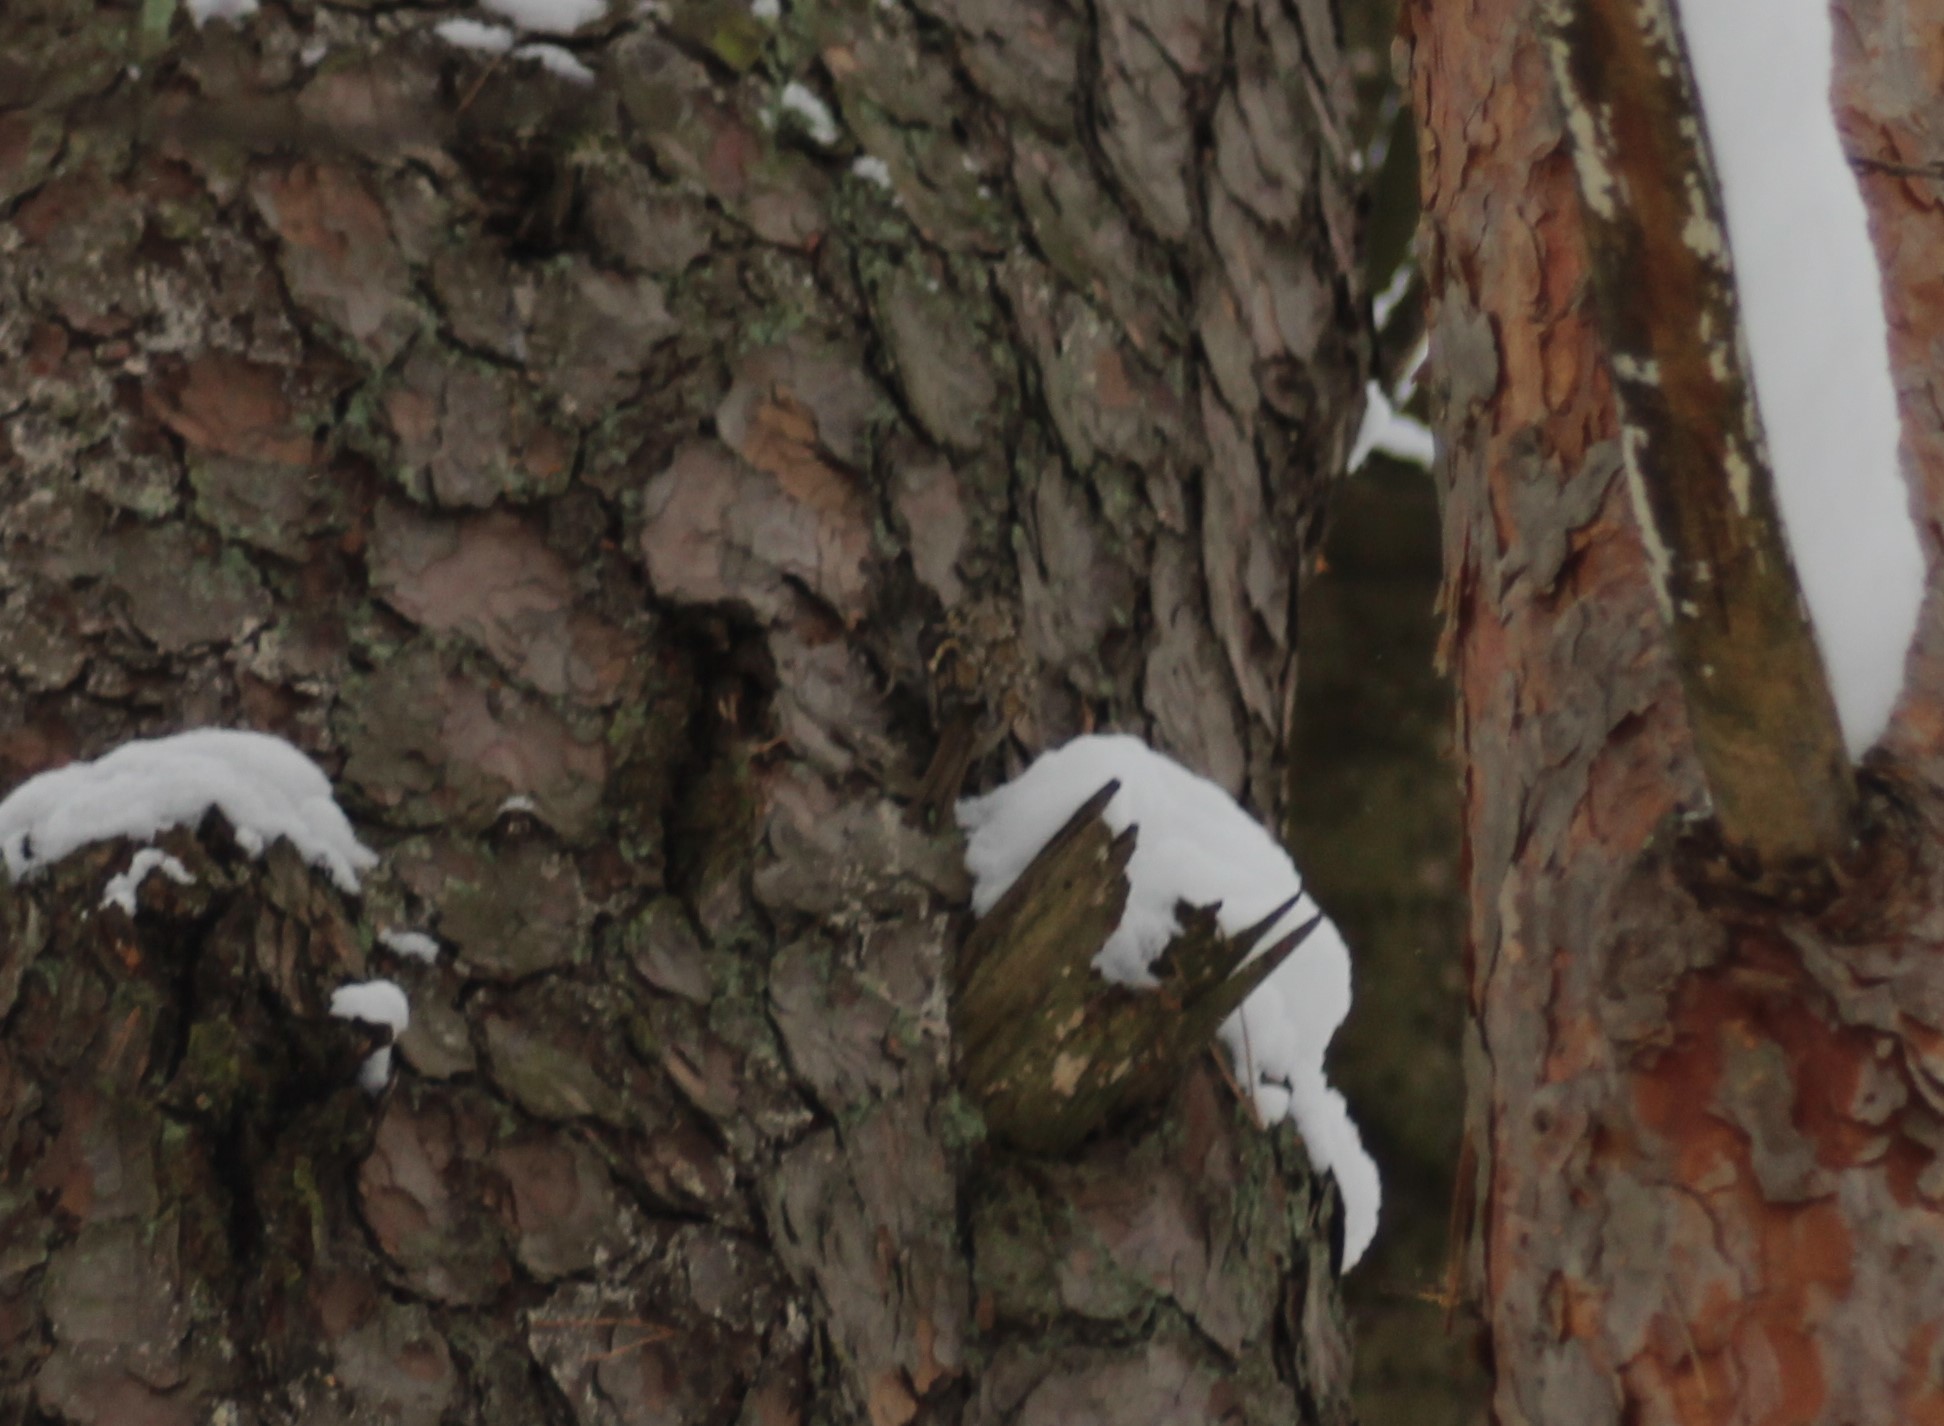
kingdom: Animalia
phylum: Chordata
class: Aves
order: Passeriformes
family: Certhiidae
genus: Certhia
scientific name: Certhia familiaris
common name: Eurasian treecreeper
